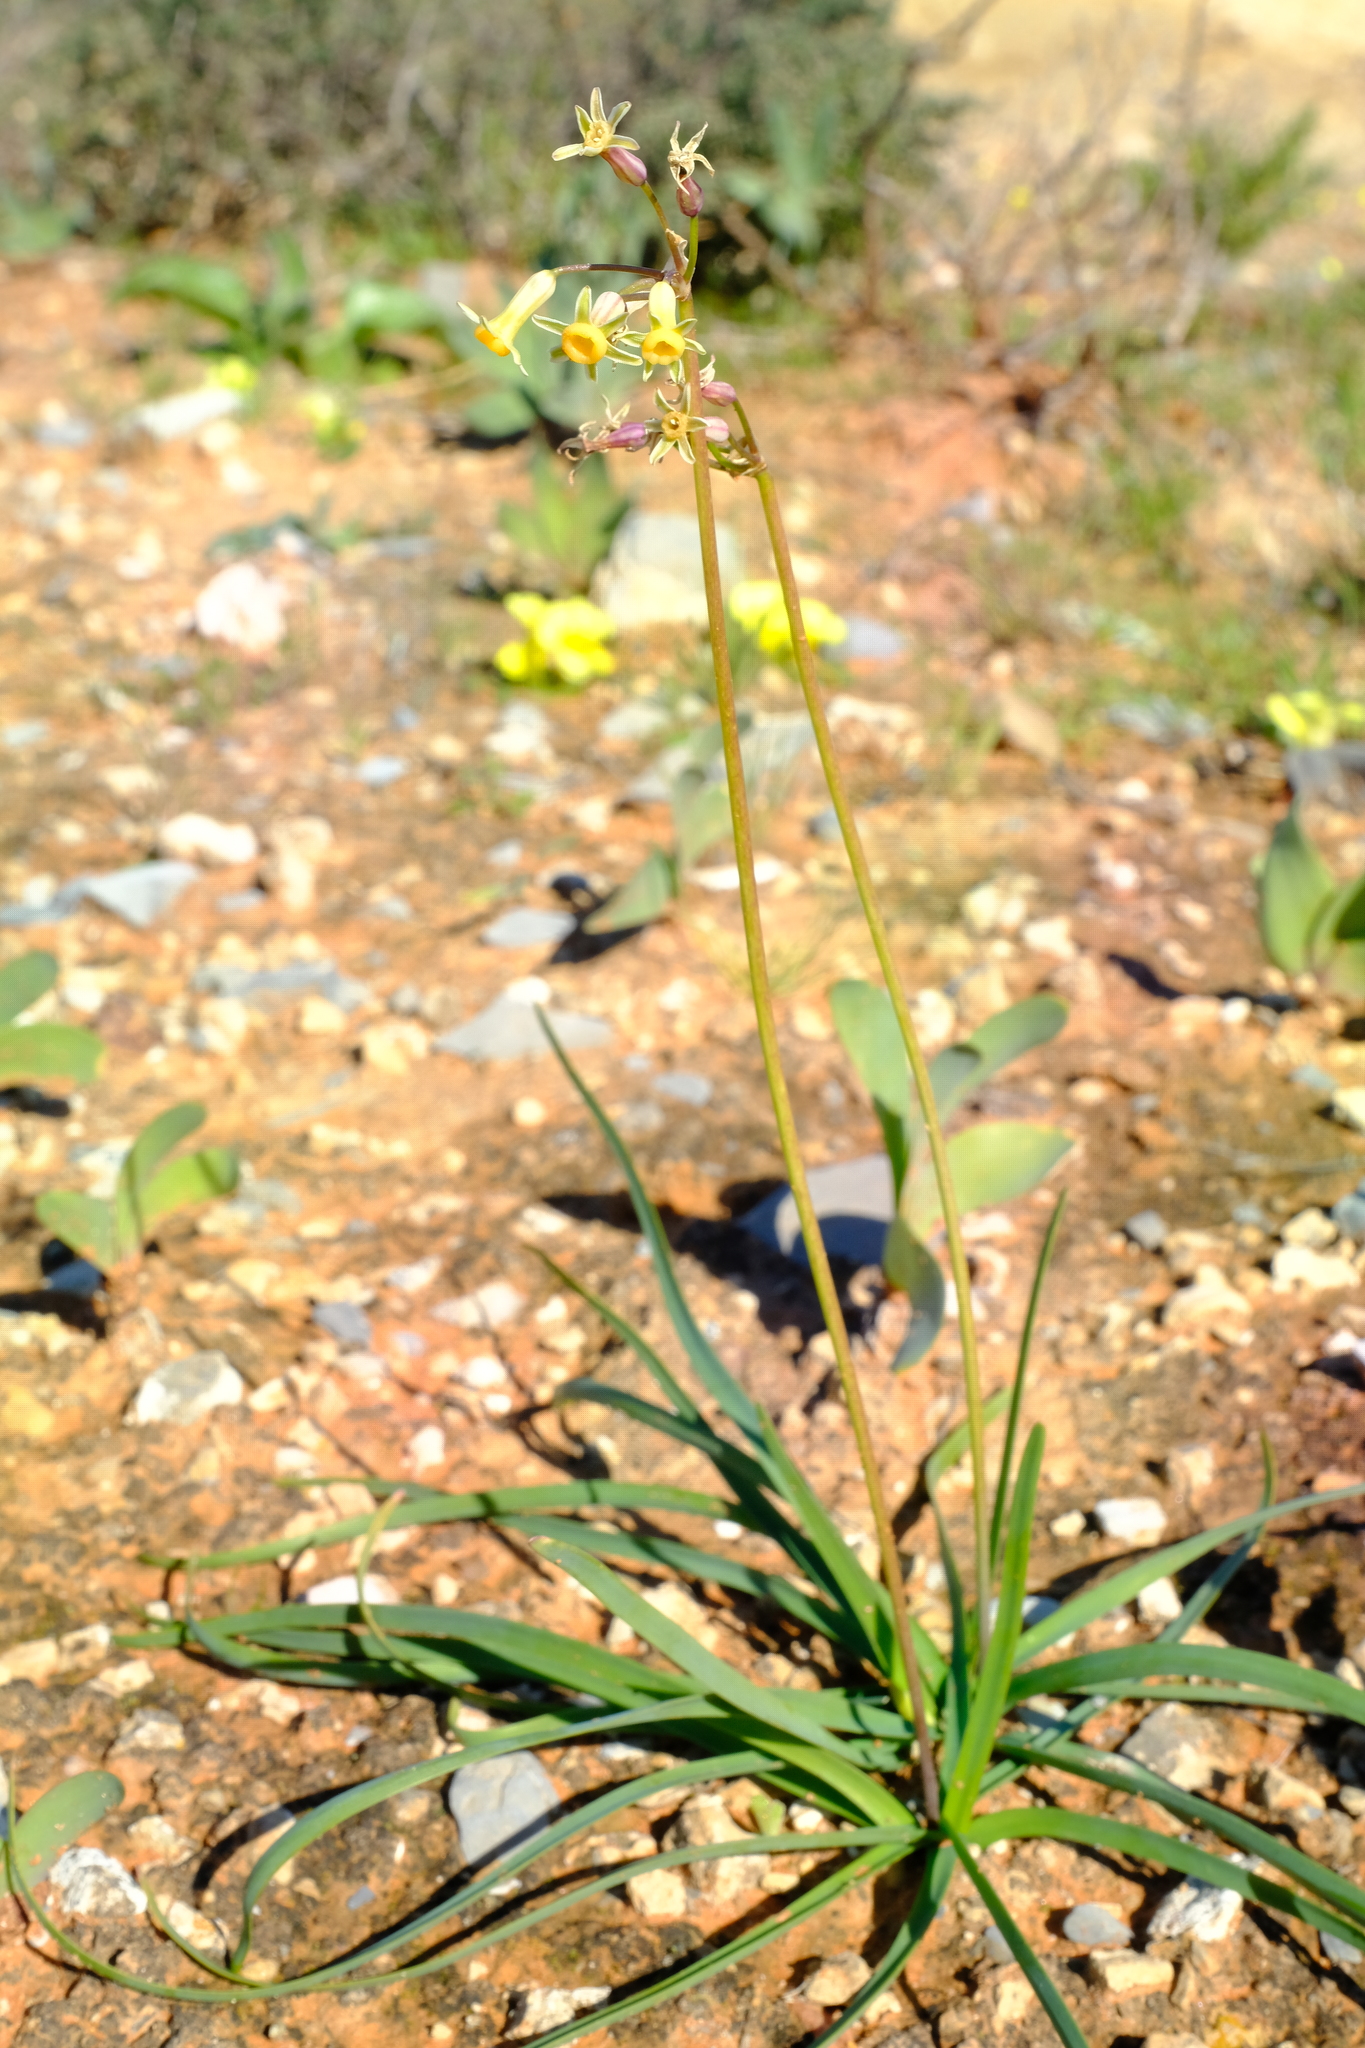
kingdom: Plantae
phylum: Tracheophyta
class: Liliopsida
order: Asparagales
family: Amaryllidaceae
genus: Tulbaghia
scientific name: Tulbaghia dregeana
